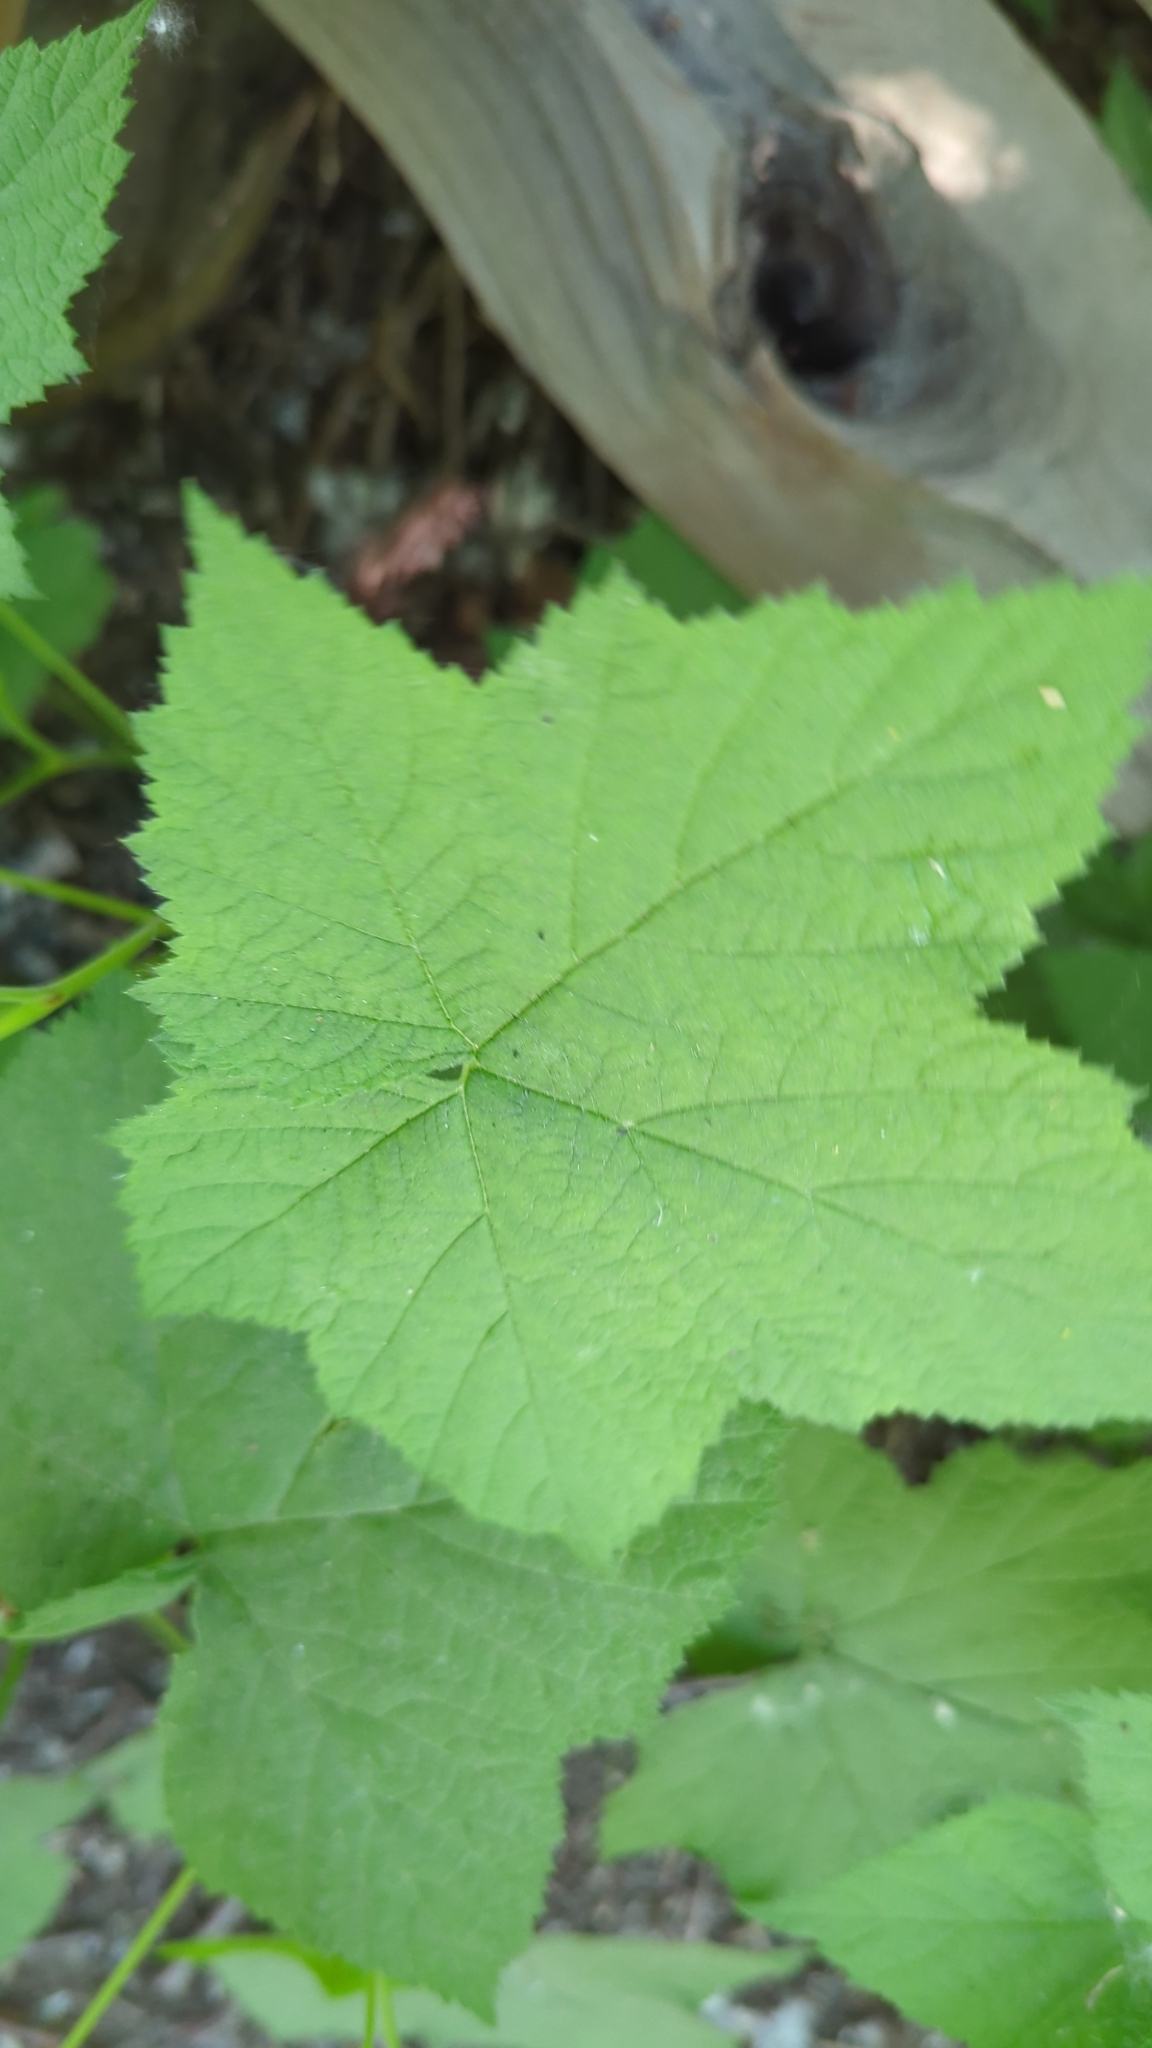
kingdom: Plantae
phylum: Tracheophyta
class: Magnoliopsida
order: Rosales
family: Rosaceae
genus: Rubus
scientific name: Rubus parviflorus
